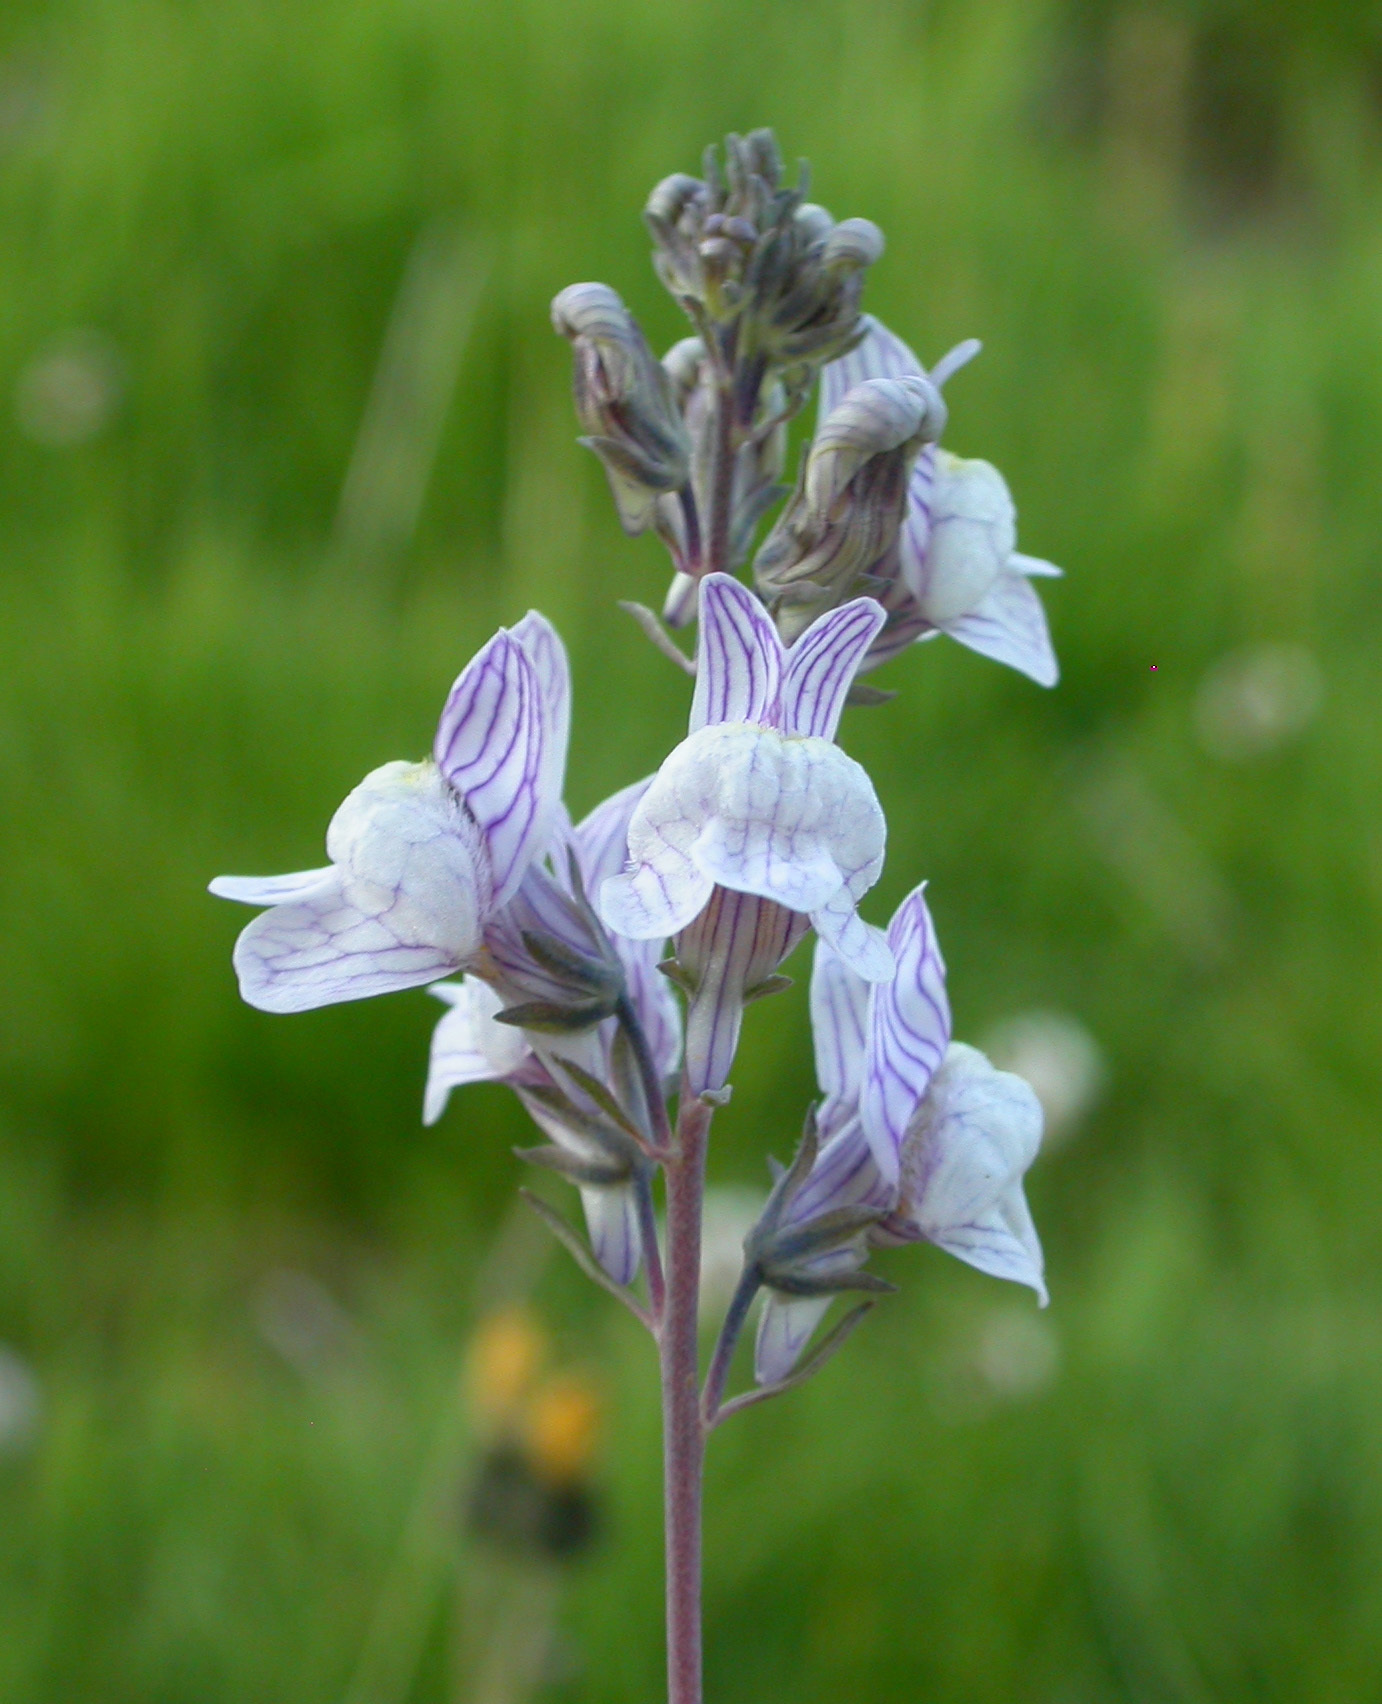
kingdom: Plantae
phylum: Tracheophyta
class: Magnoliopsida
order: Lamiales
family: Plantaginaceae
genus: Linaria
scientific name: Linaria repens
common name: Pale toadflax
